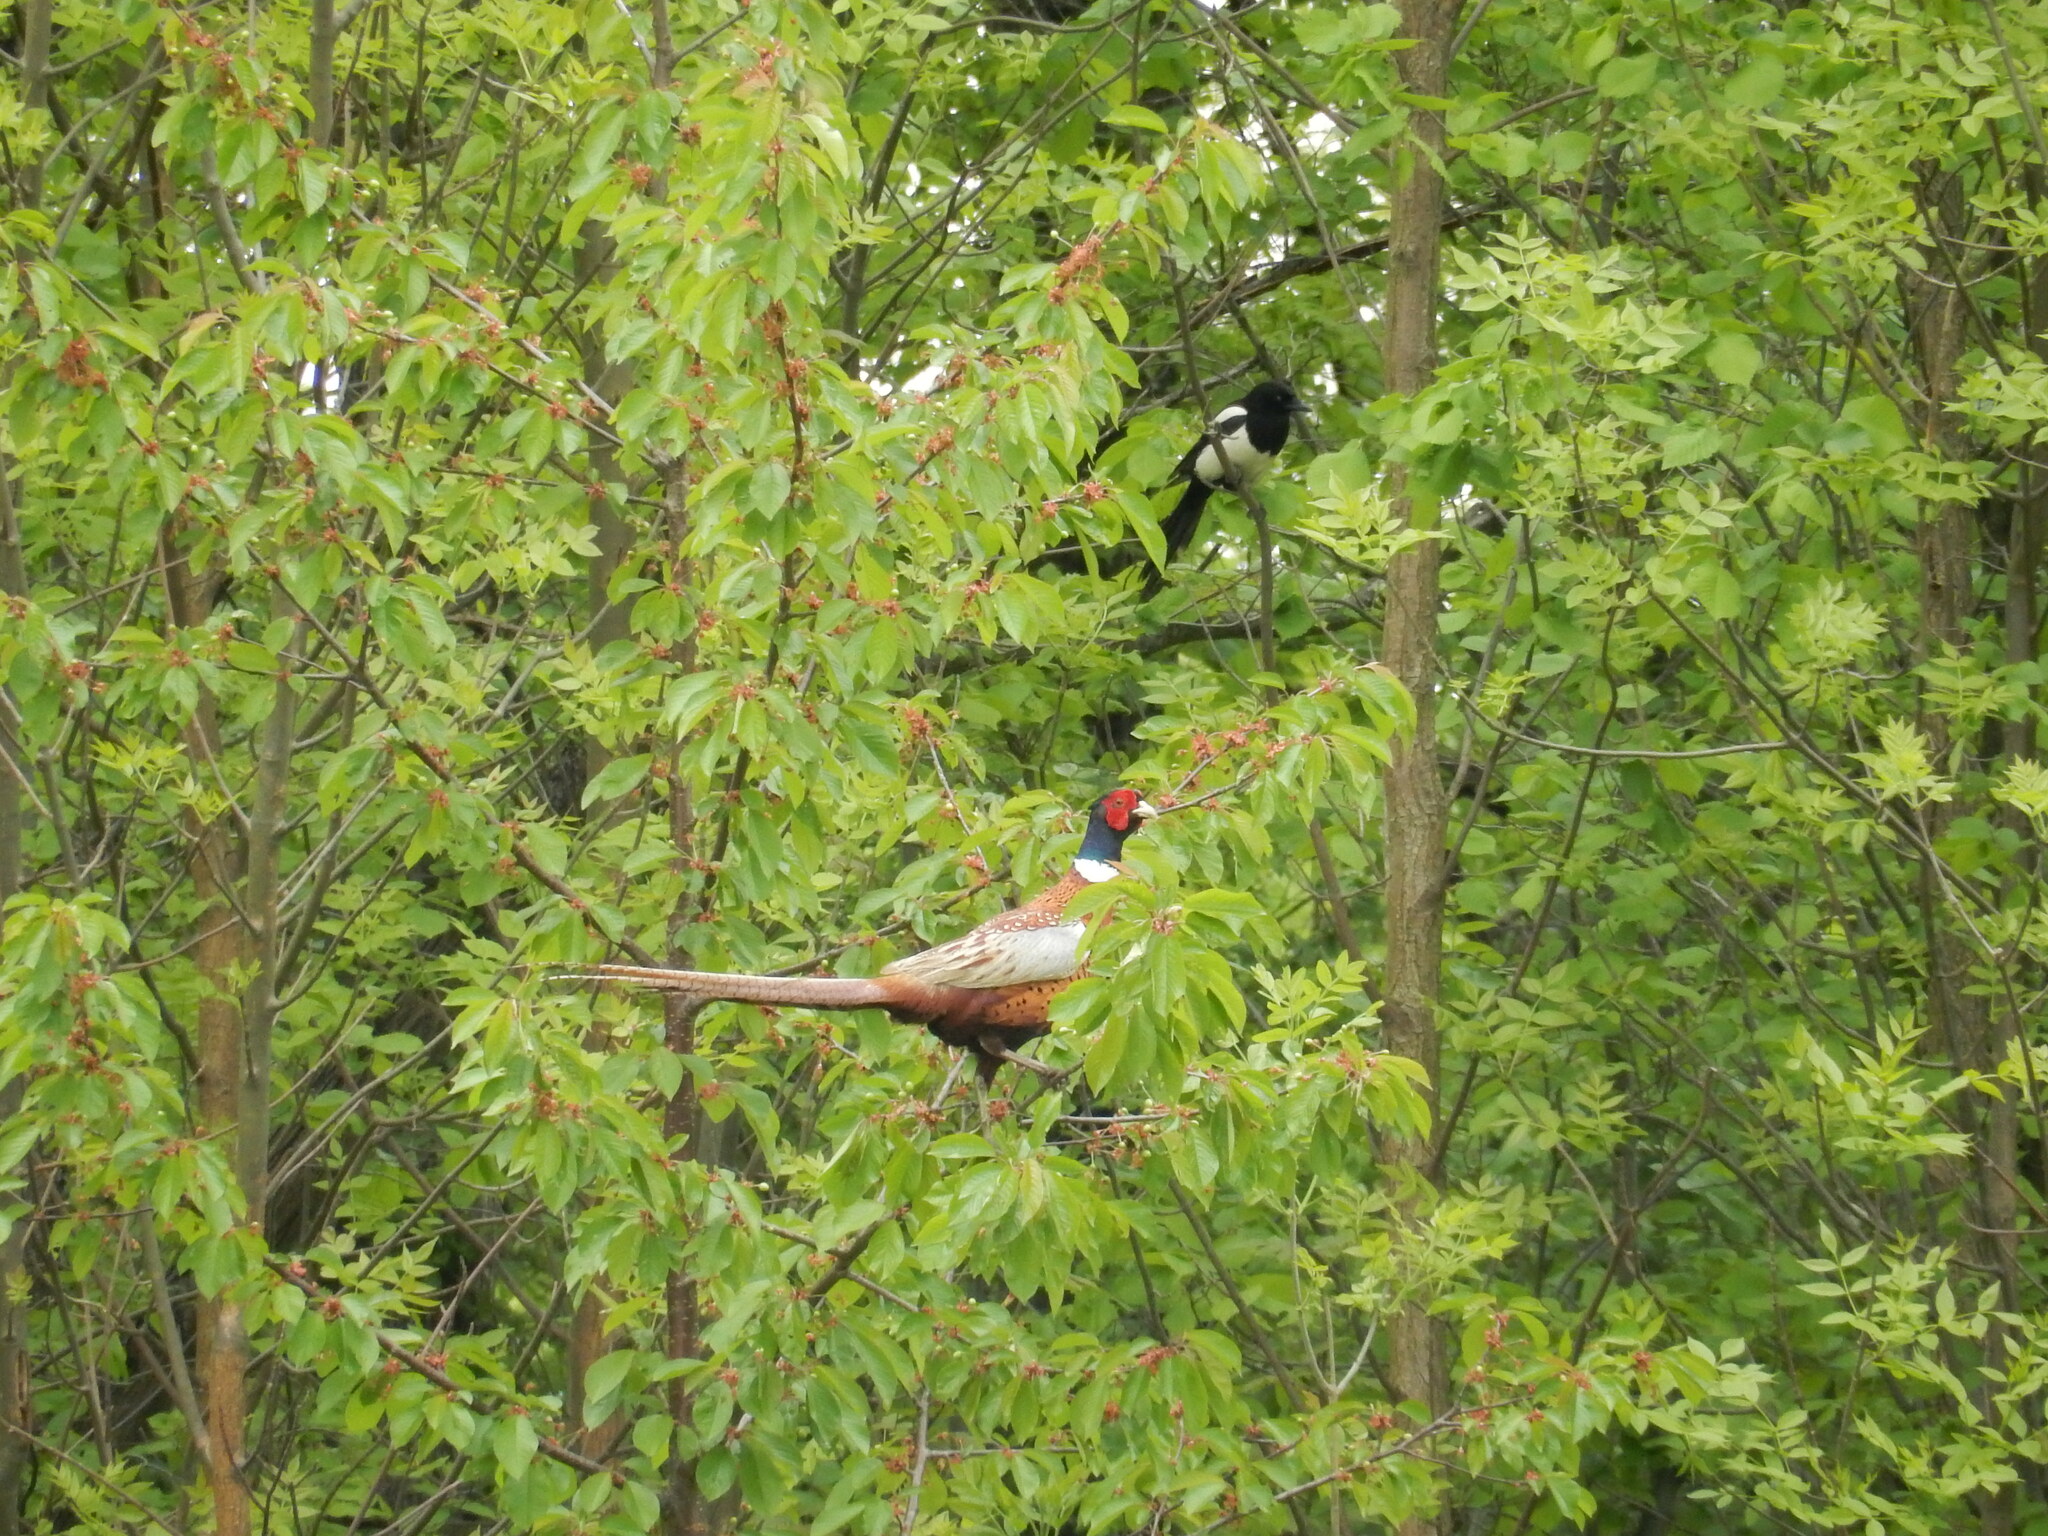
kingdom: Animalia
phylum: Chordata
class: Aves
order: Galliformes
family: Phasianidae
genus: Phasianus
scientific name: Phasianus colchicus
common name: Common pheasant
